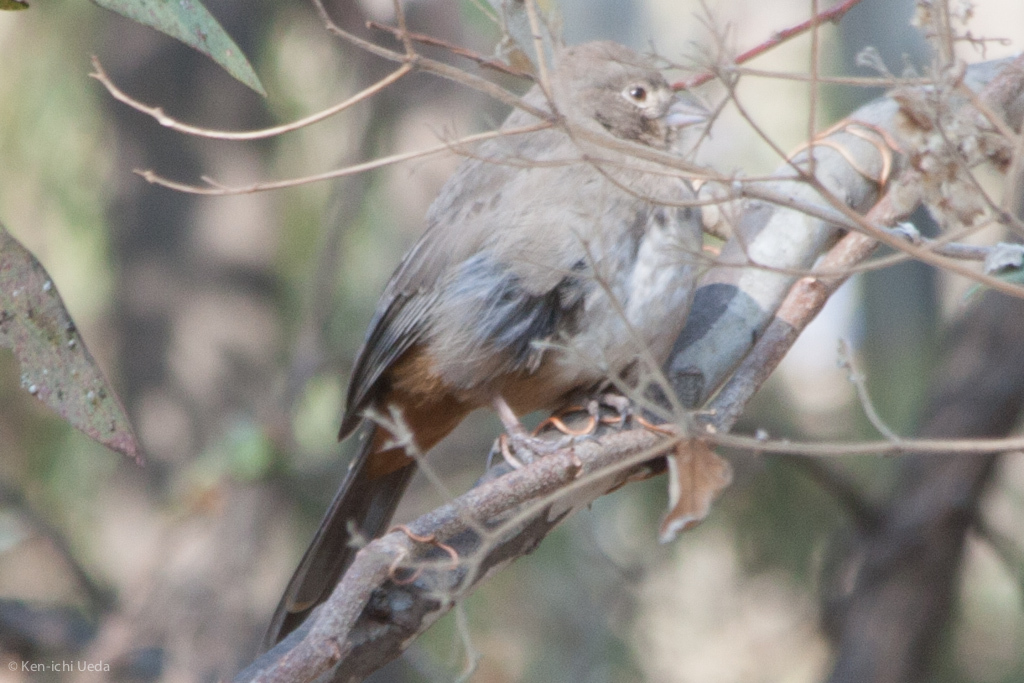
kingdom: Animalia
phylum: Chordata
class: Aves
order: Passeriformes
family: Passerellidae
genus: Melozone
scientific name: Melozone fusca
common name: Canyon towhee
